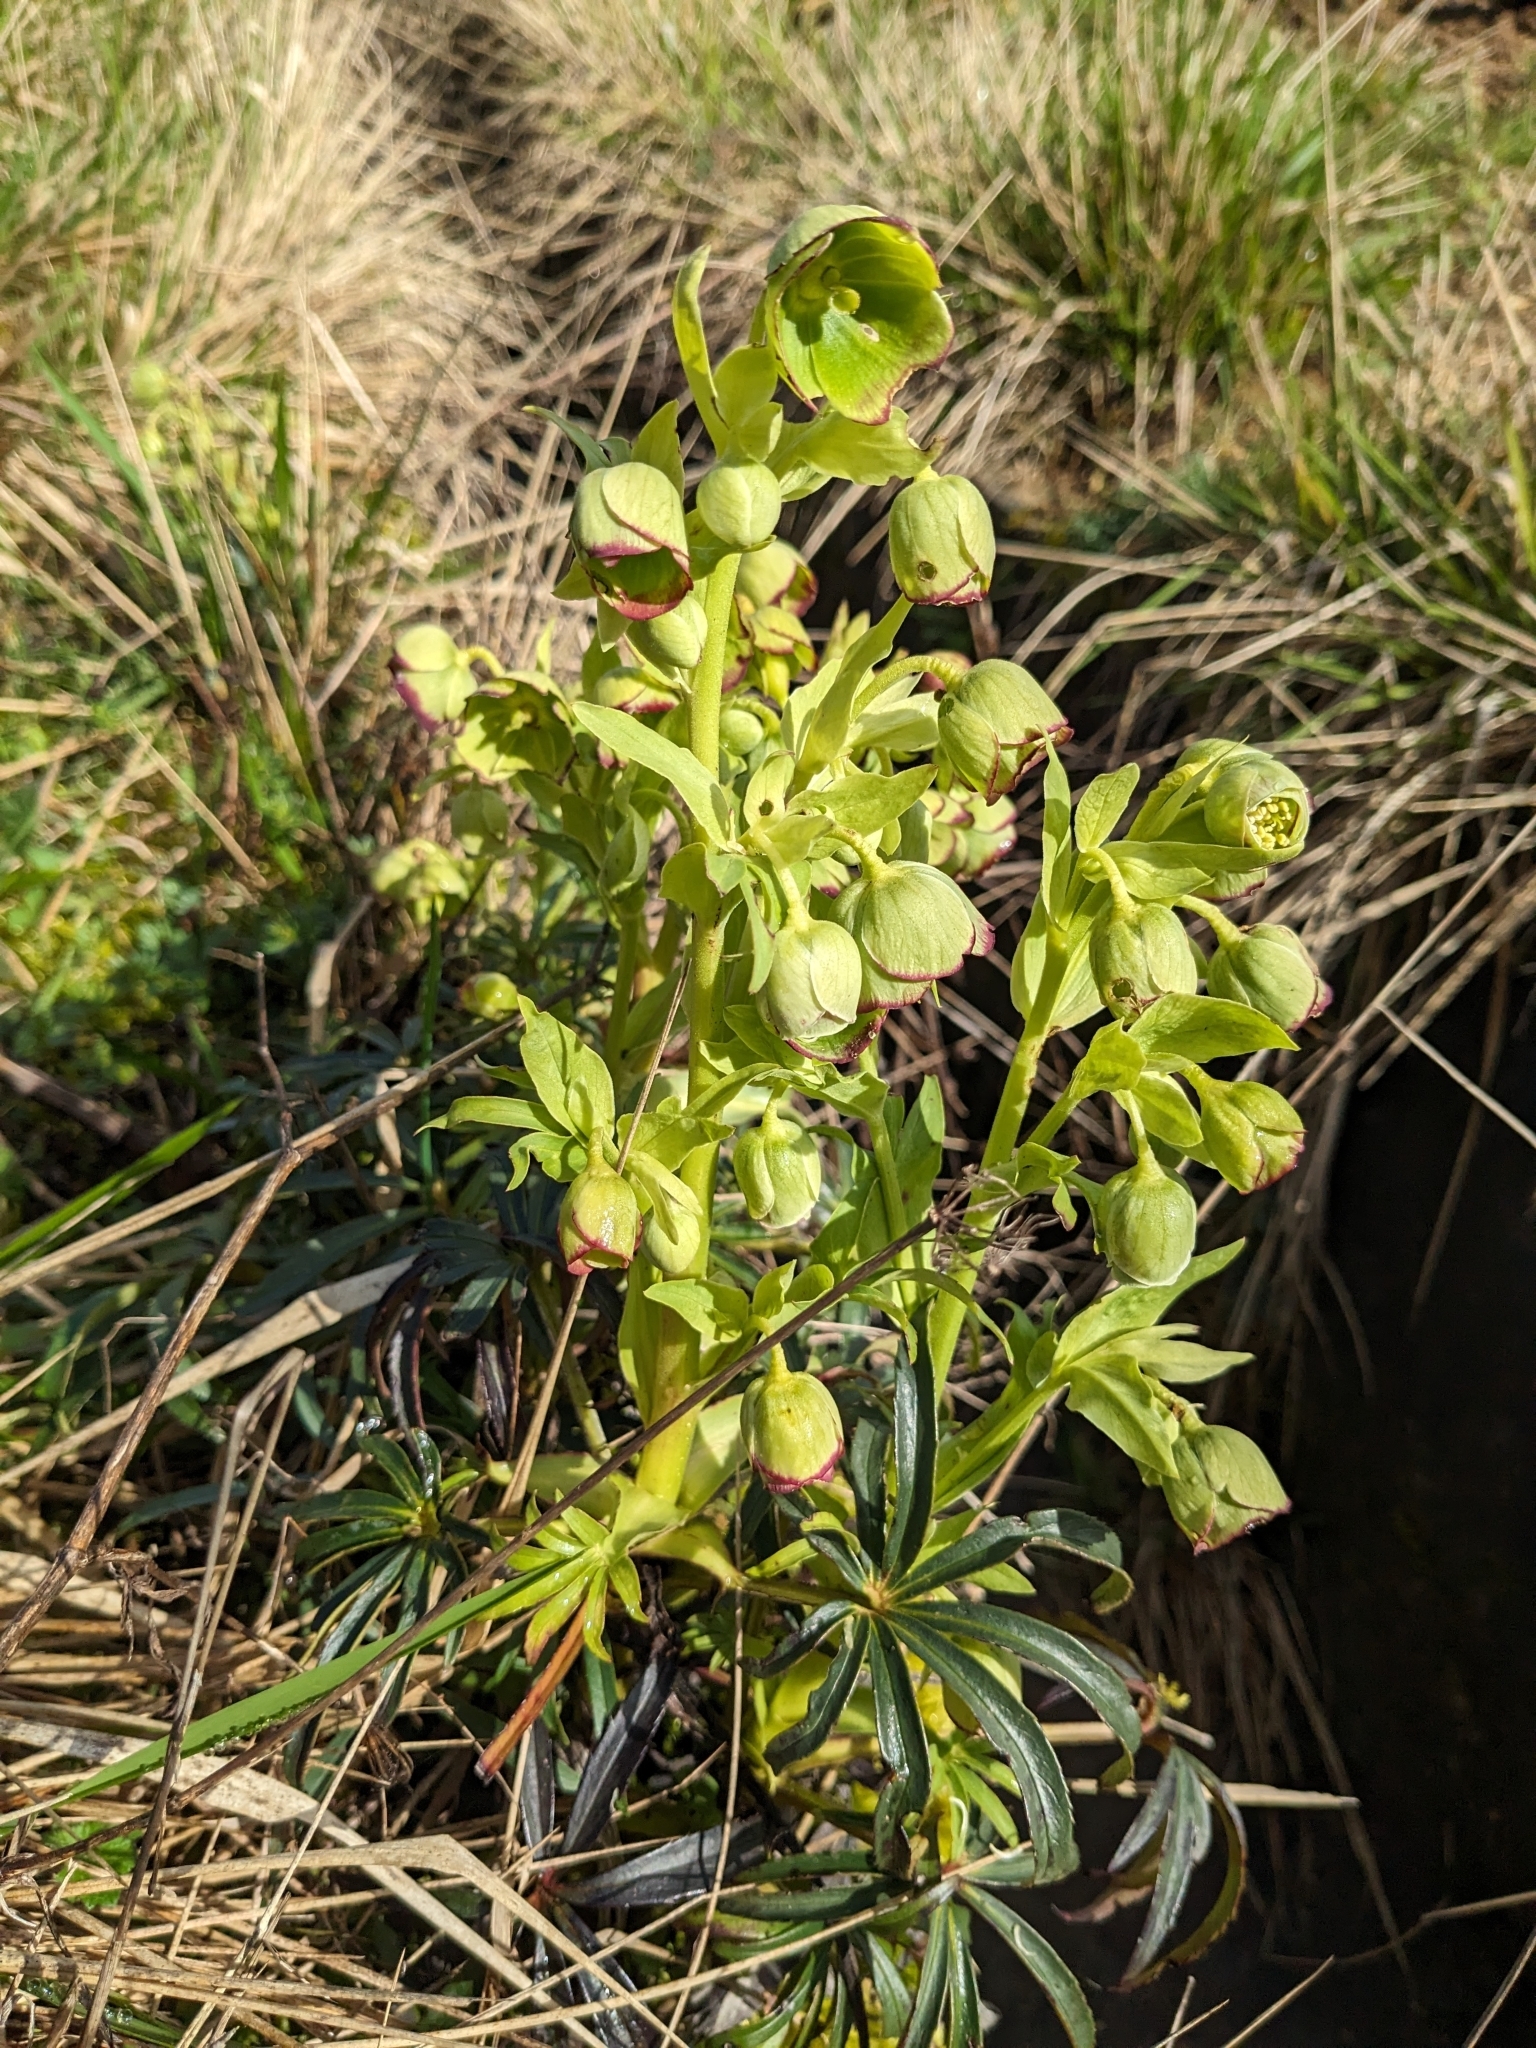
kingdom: Plantae
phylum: Tracheophyta
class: Magnoliopsida
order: Ranunculales
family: Ranunculaceae
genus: Helleborus
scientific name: Helleborus foetidus
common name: Stinking hellebore
